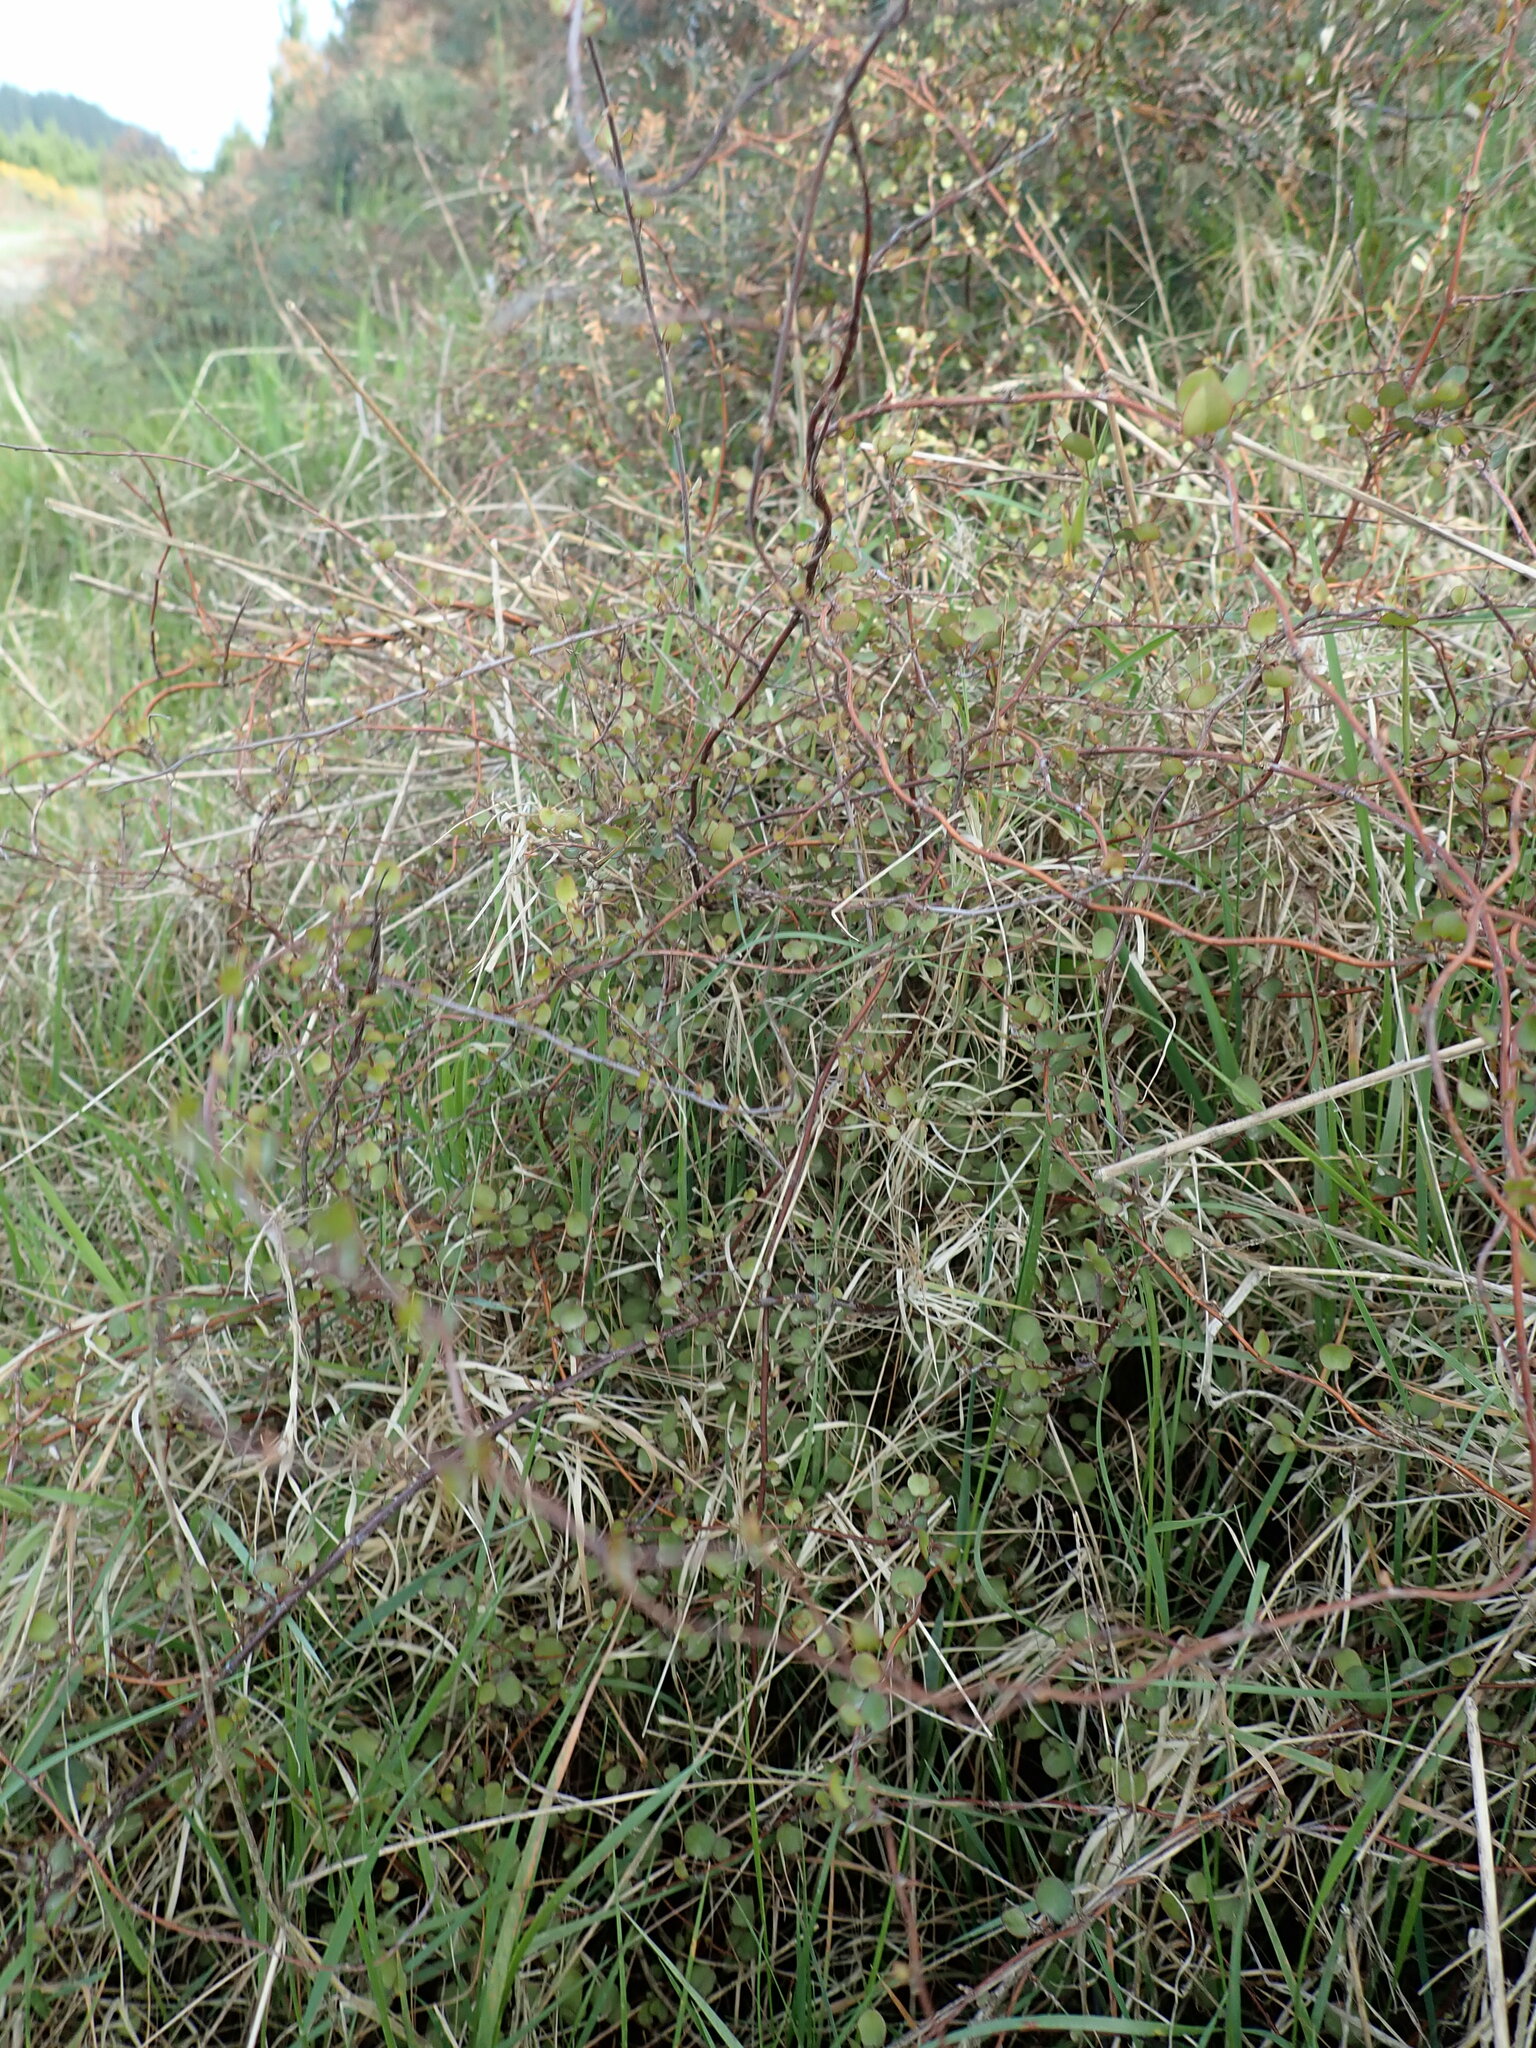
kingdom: Plantae
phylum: Tracheophyta
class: Magnoliopsida
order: Caryophyllales
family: Polygonaceae
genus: Muehlenbeckia
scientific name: Muehlenbeckia complexa
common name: Wireplant
